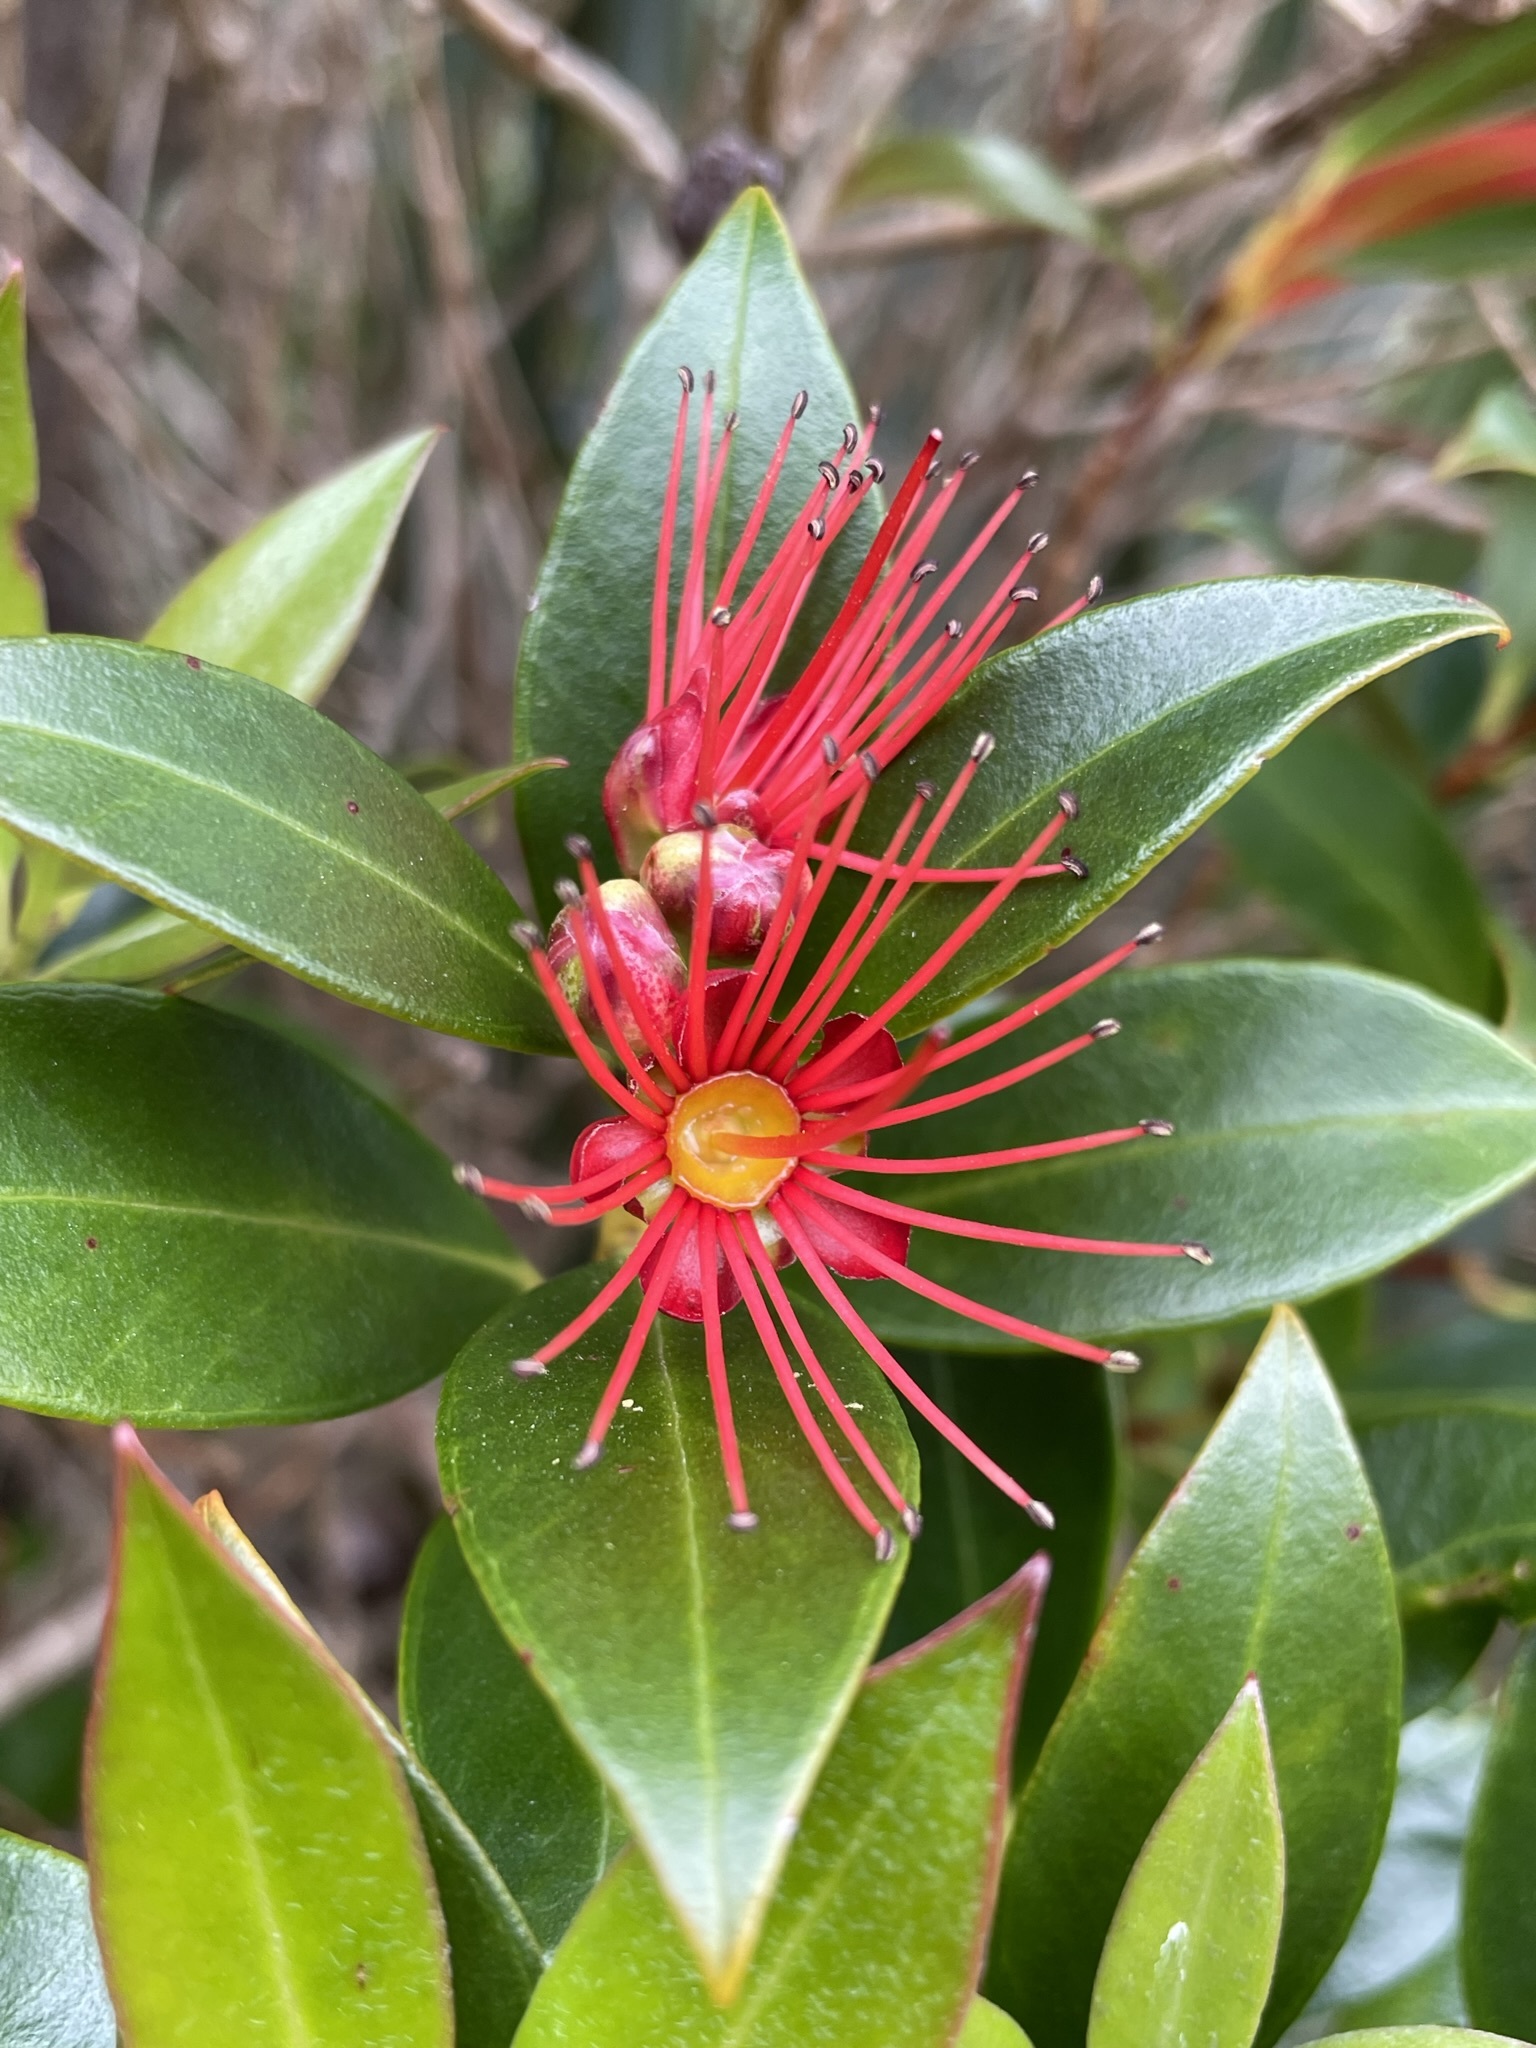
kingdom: Plantae
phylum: Tracheophyta
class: Magnoliopsida
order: Myrtales
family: Myrtaceae
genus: Metrosideros
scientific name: Metrosideros umbellata
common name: Southern rata
